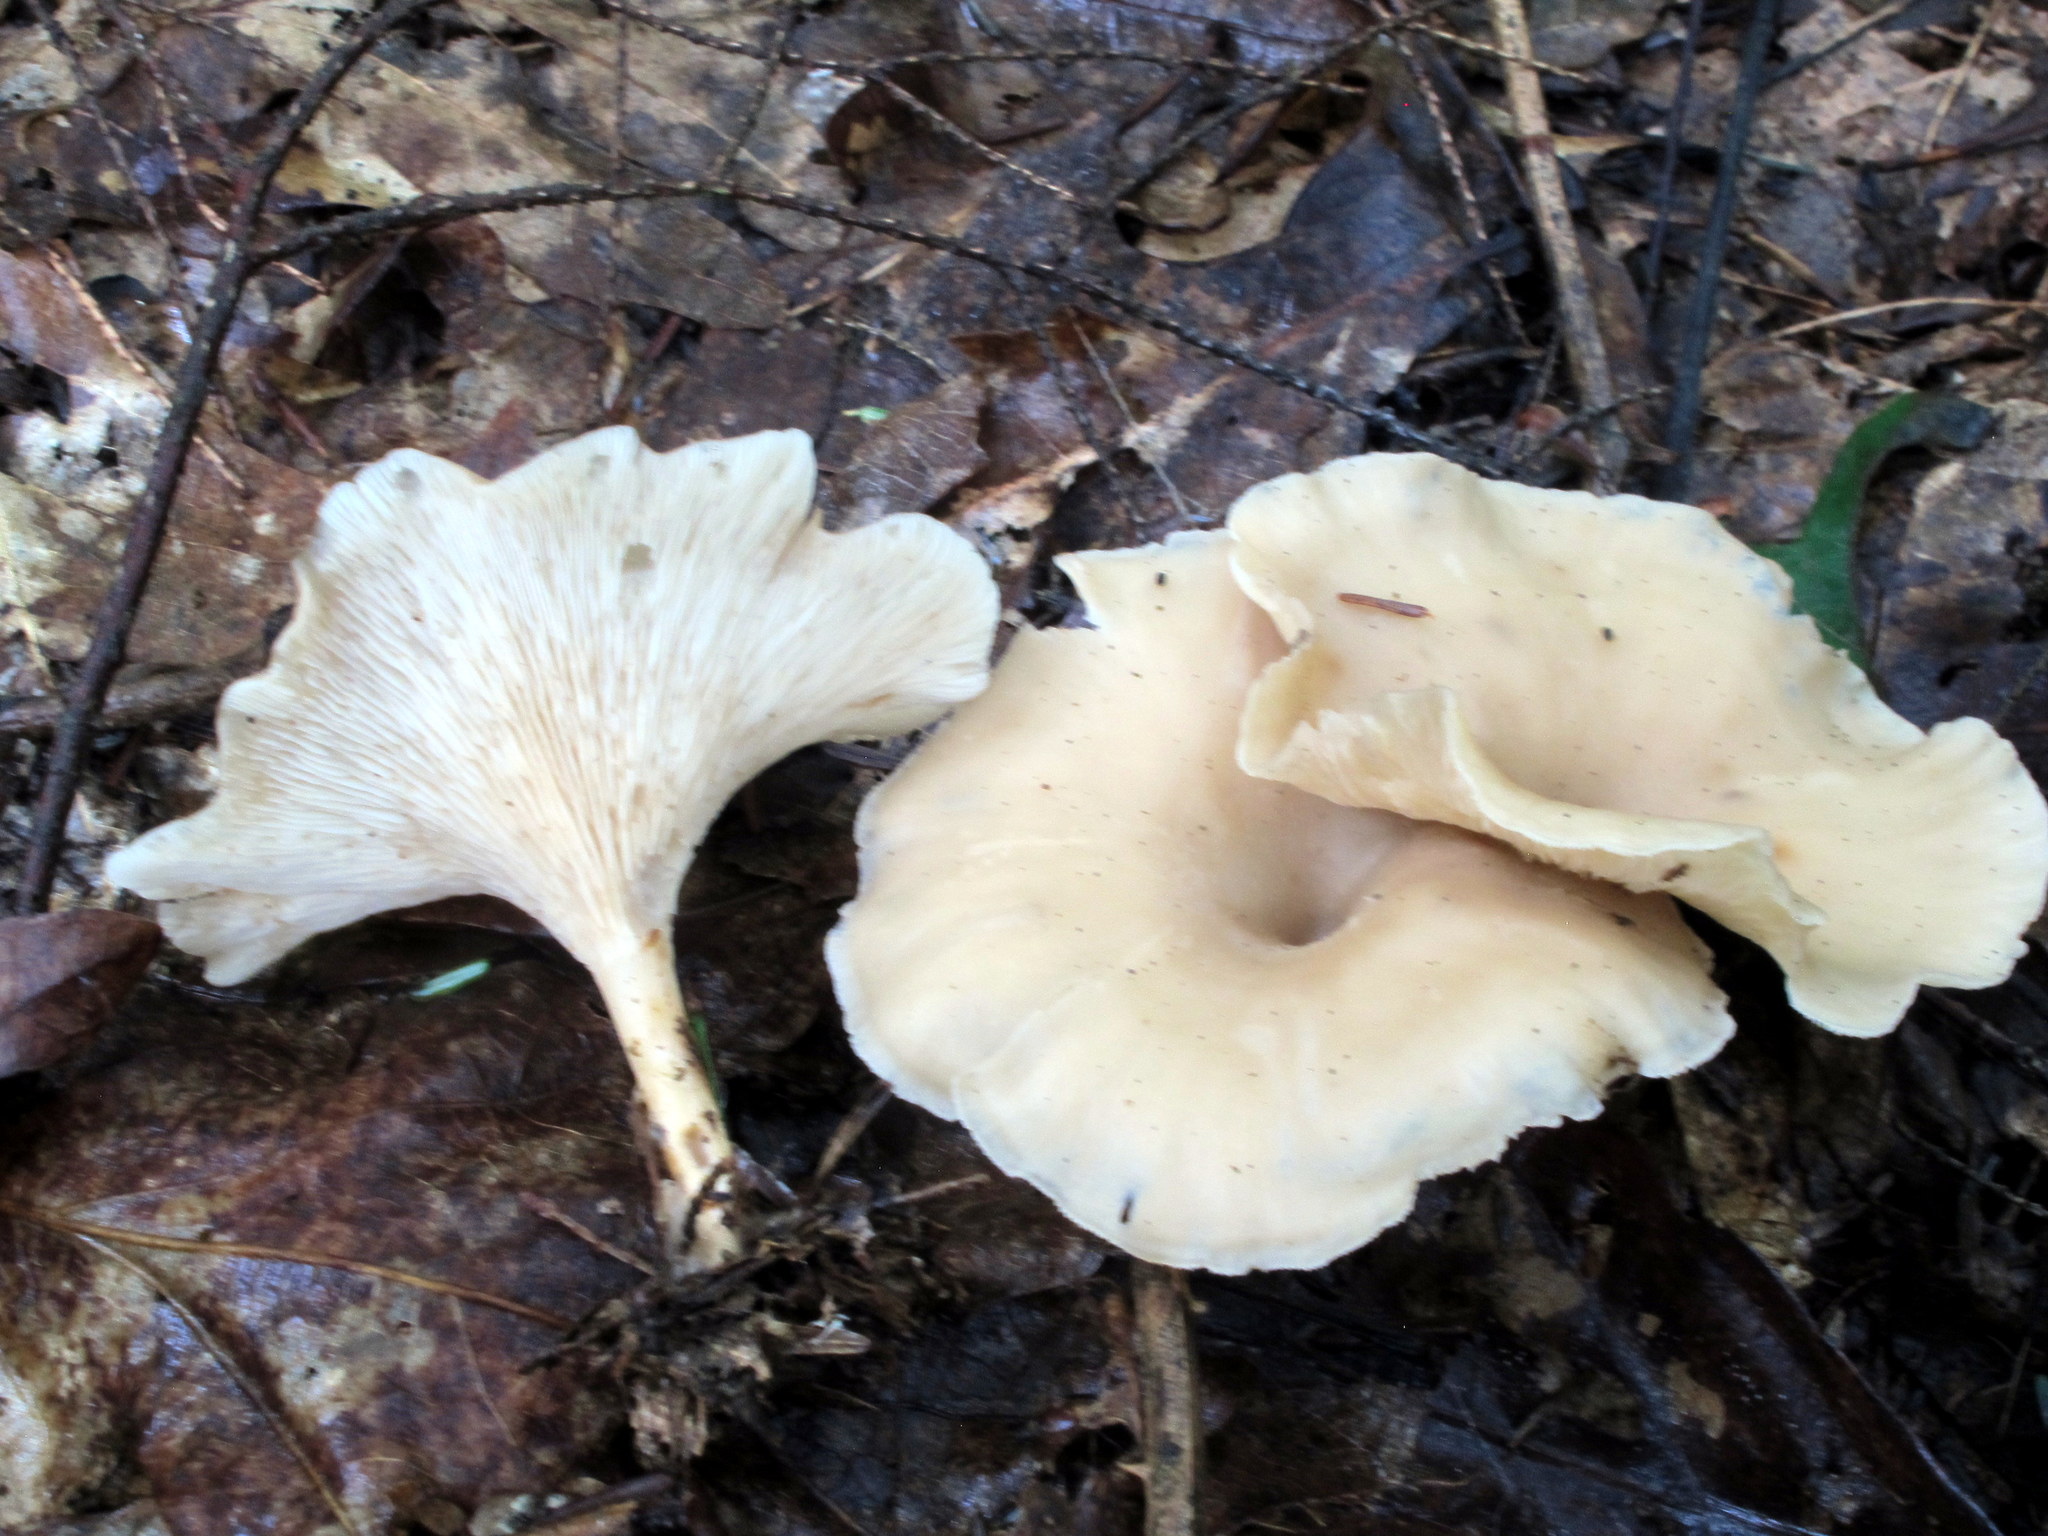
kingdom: Fungi
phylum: Basidiomycota
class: Agaricomycetes
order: Agaricales
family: Tricholomataceae
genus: Singerocybe
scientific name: Singerocybe adirondackensis
